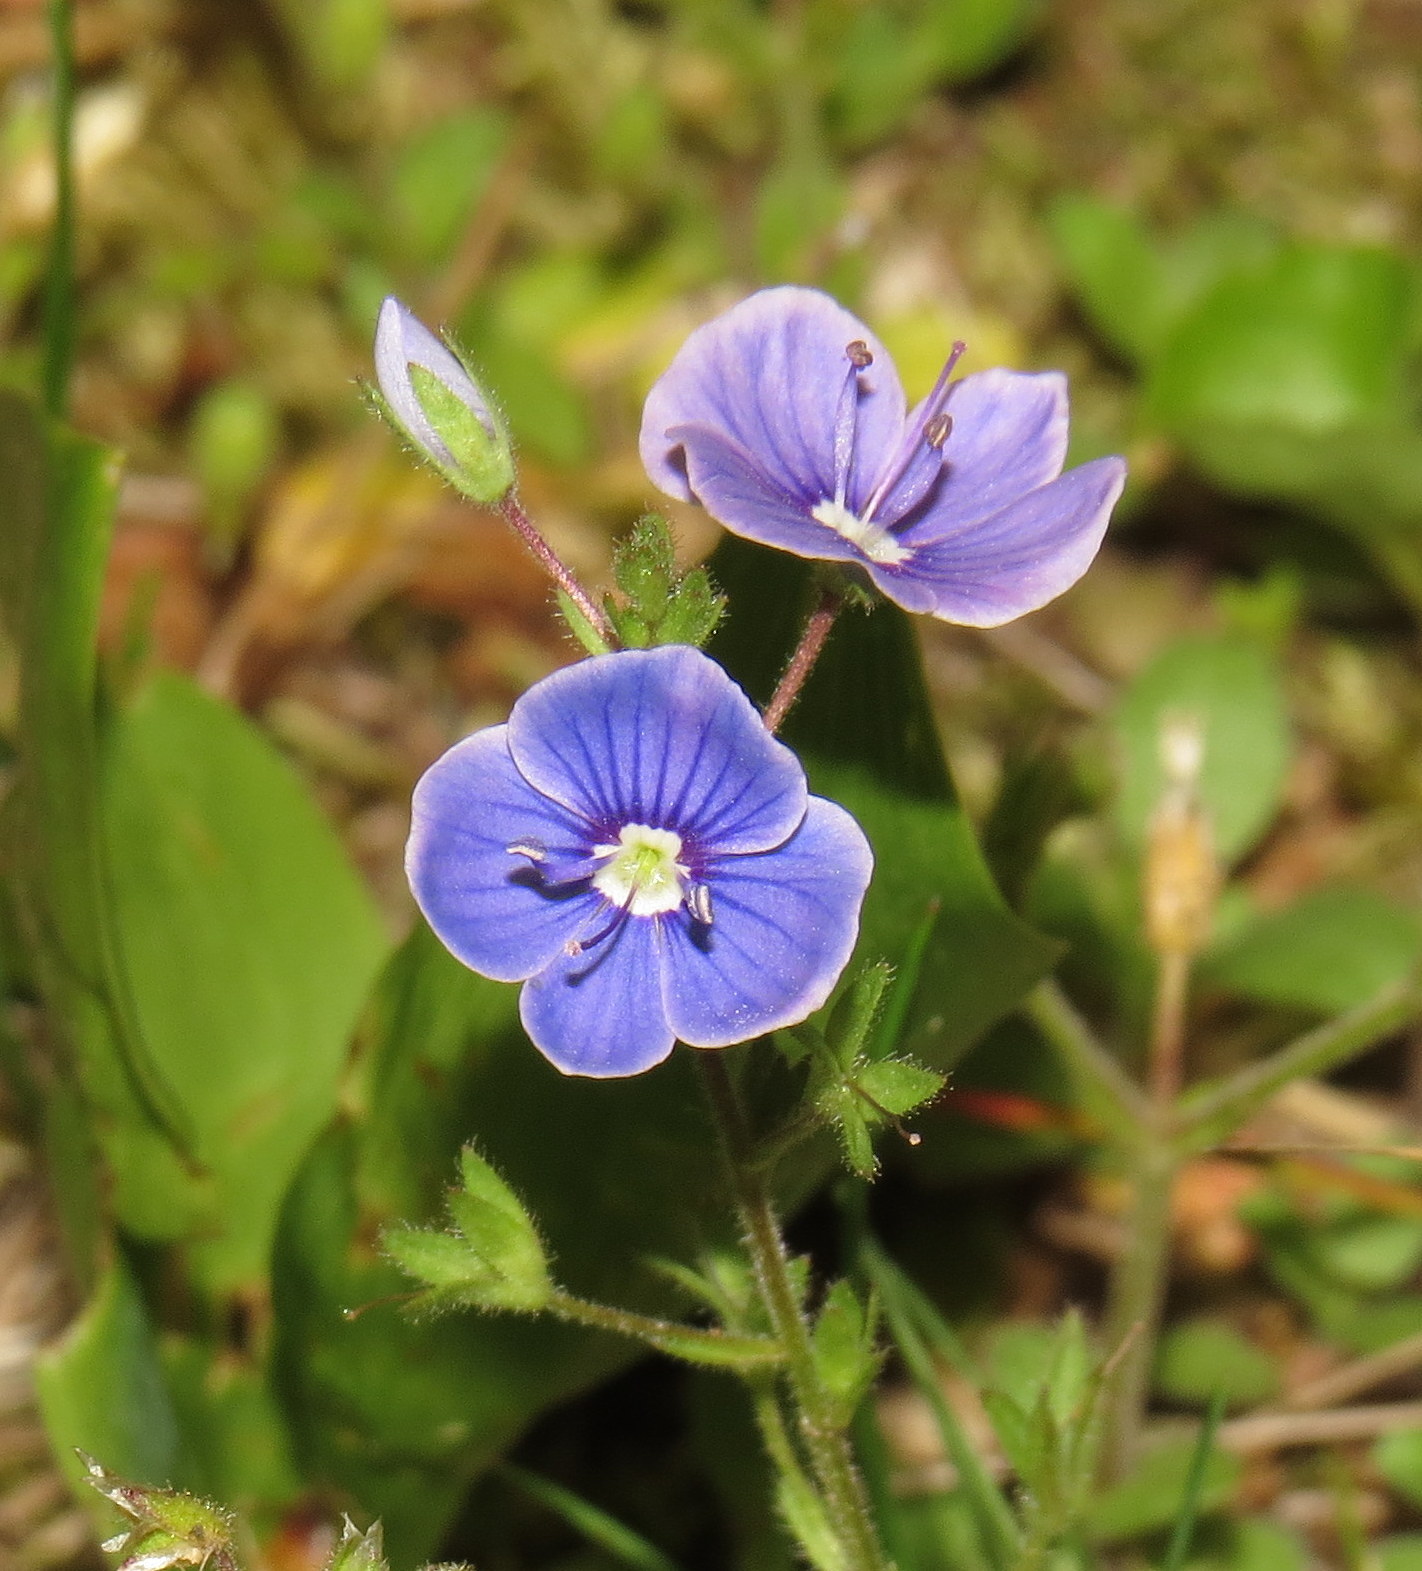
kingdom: Plantae
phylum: Tracheophyta
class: Magnoliopsida
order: Lamiales
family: Plantaginaceae
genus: Veronica
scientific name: Veronica chamaedrys
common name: Germander speedwell
